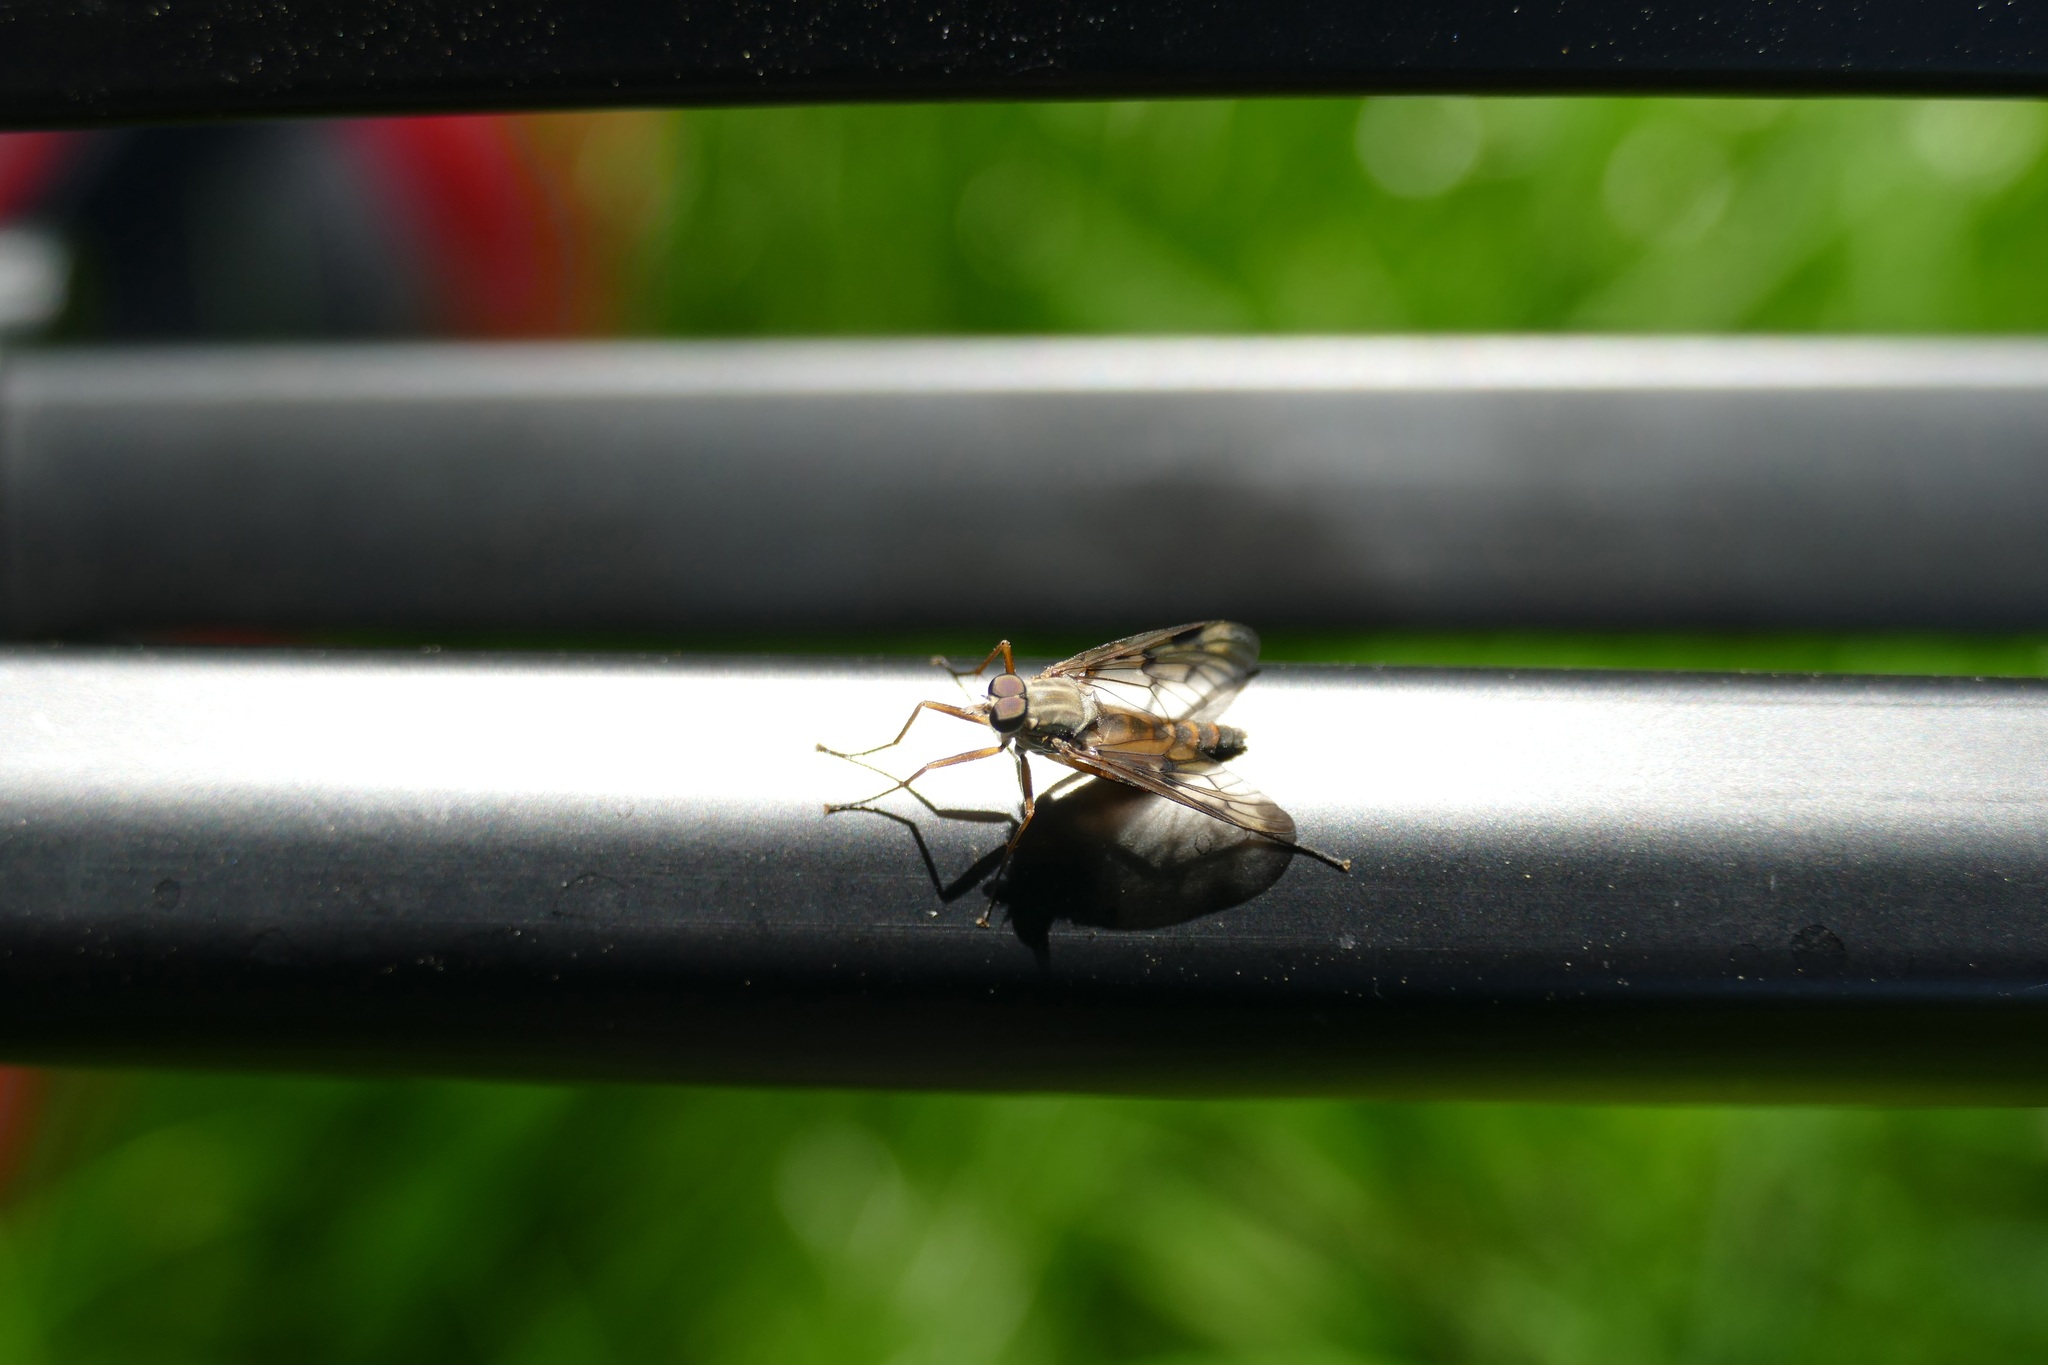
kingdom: Animalia
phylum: Arthropoda
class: Insecta
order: Diptera
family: Rhagionidae
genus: Rhagio
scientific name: Rhagio scolopacea
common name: Downlooker snipefly
